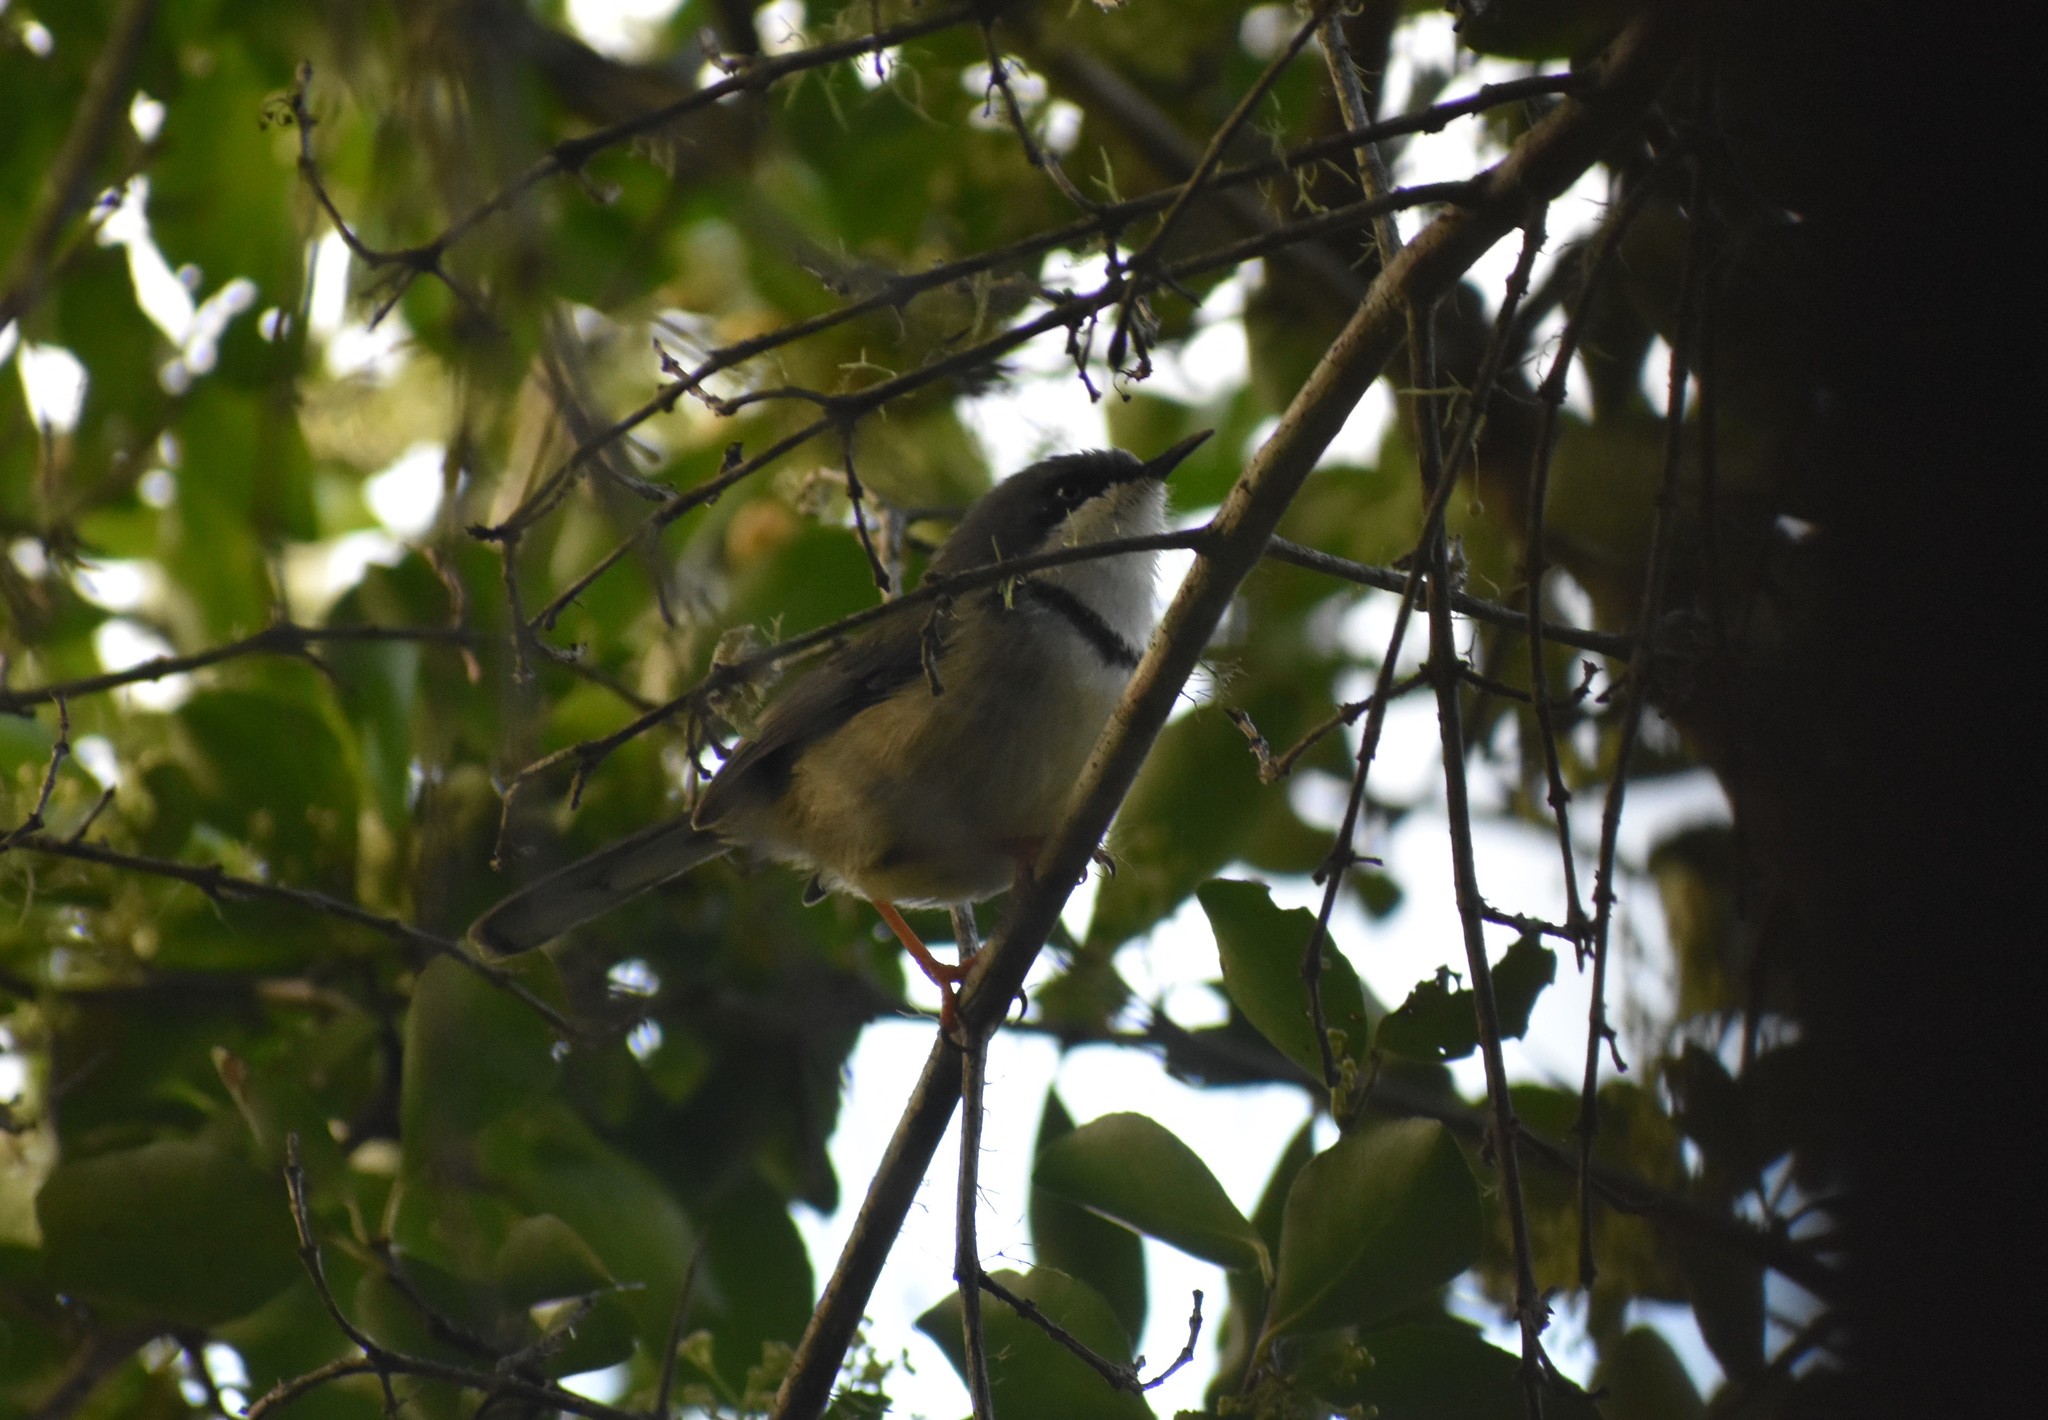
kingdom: Animalia
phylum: Chordata
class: Aves
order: Passeriformes
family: Cisticolidae
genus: Apalis
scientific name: Apalis thoracica
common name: Bar-throated apalis
